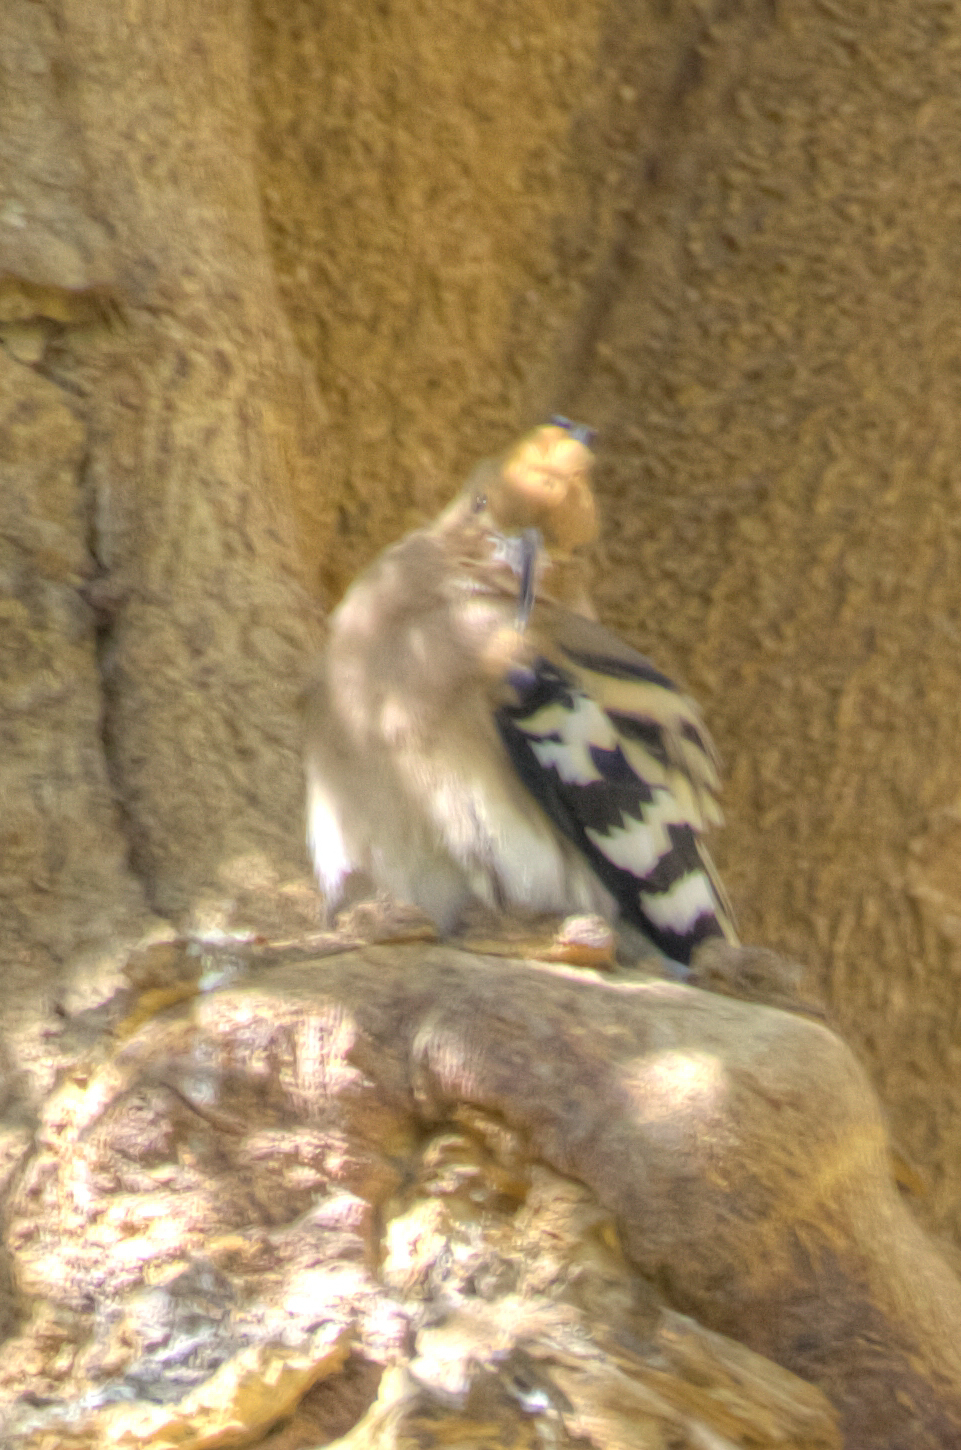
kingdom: Animalia
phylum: Chordata
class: Aves
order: Bucerotiformes
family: Upupidae
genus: Upupa
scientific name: Upupa epops
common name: Eurasian hoopoe
